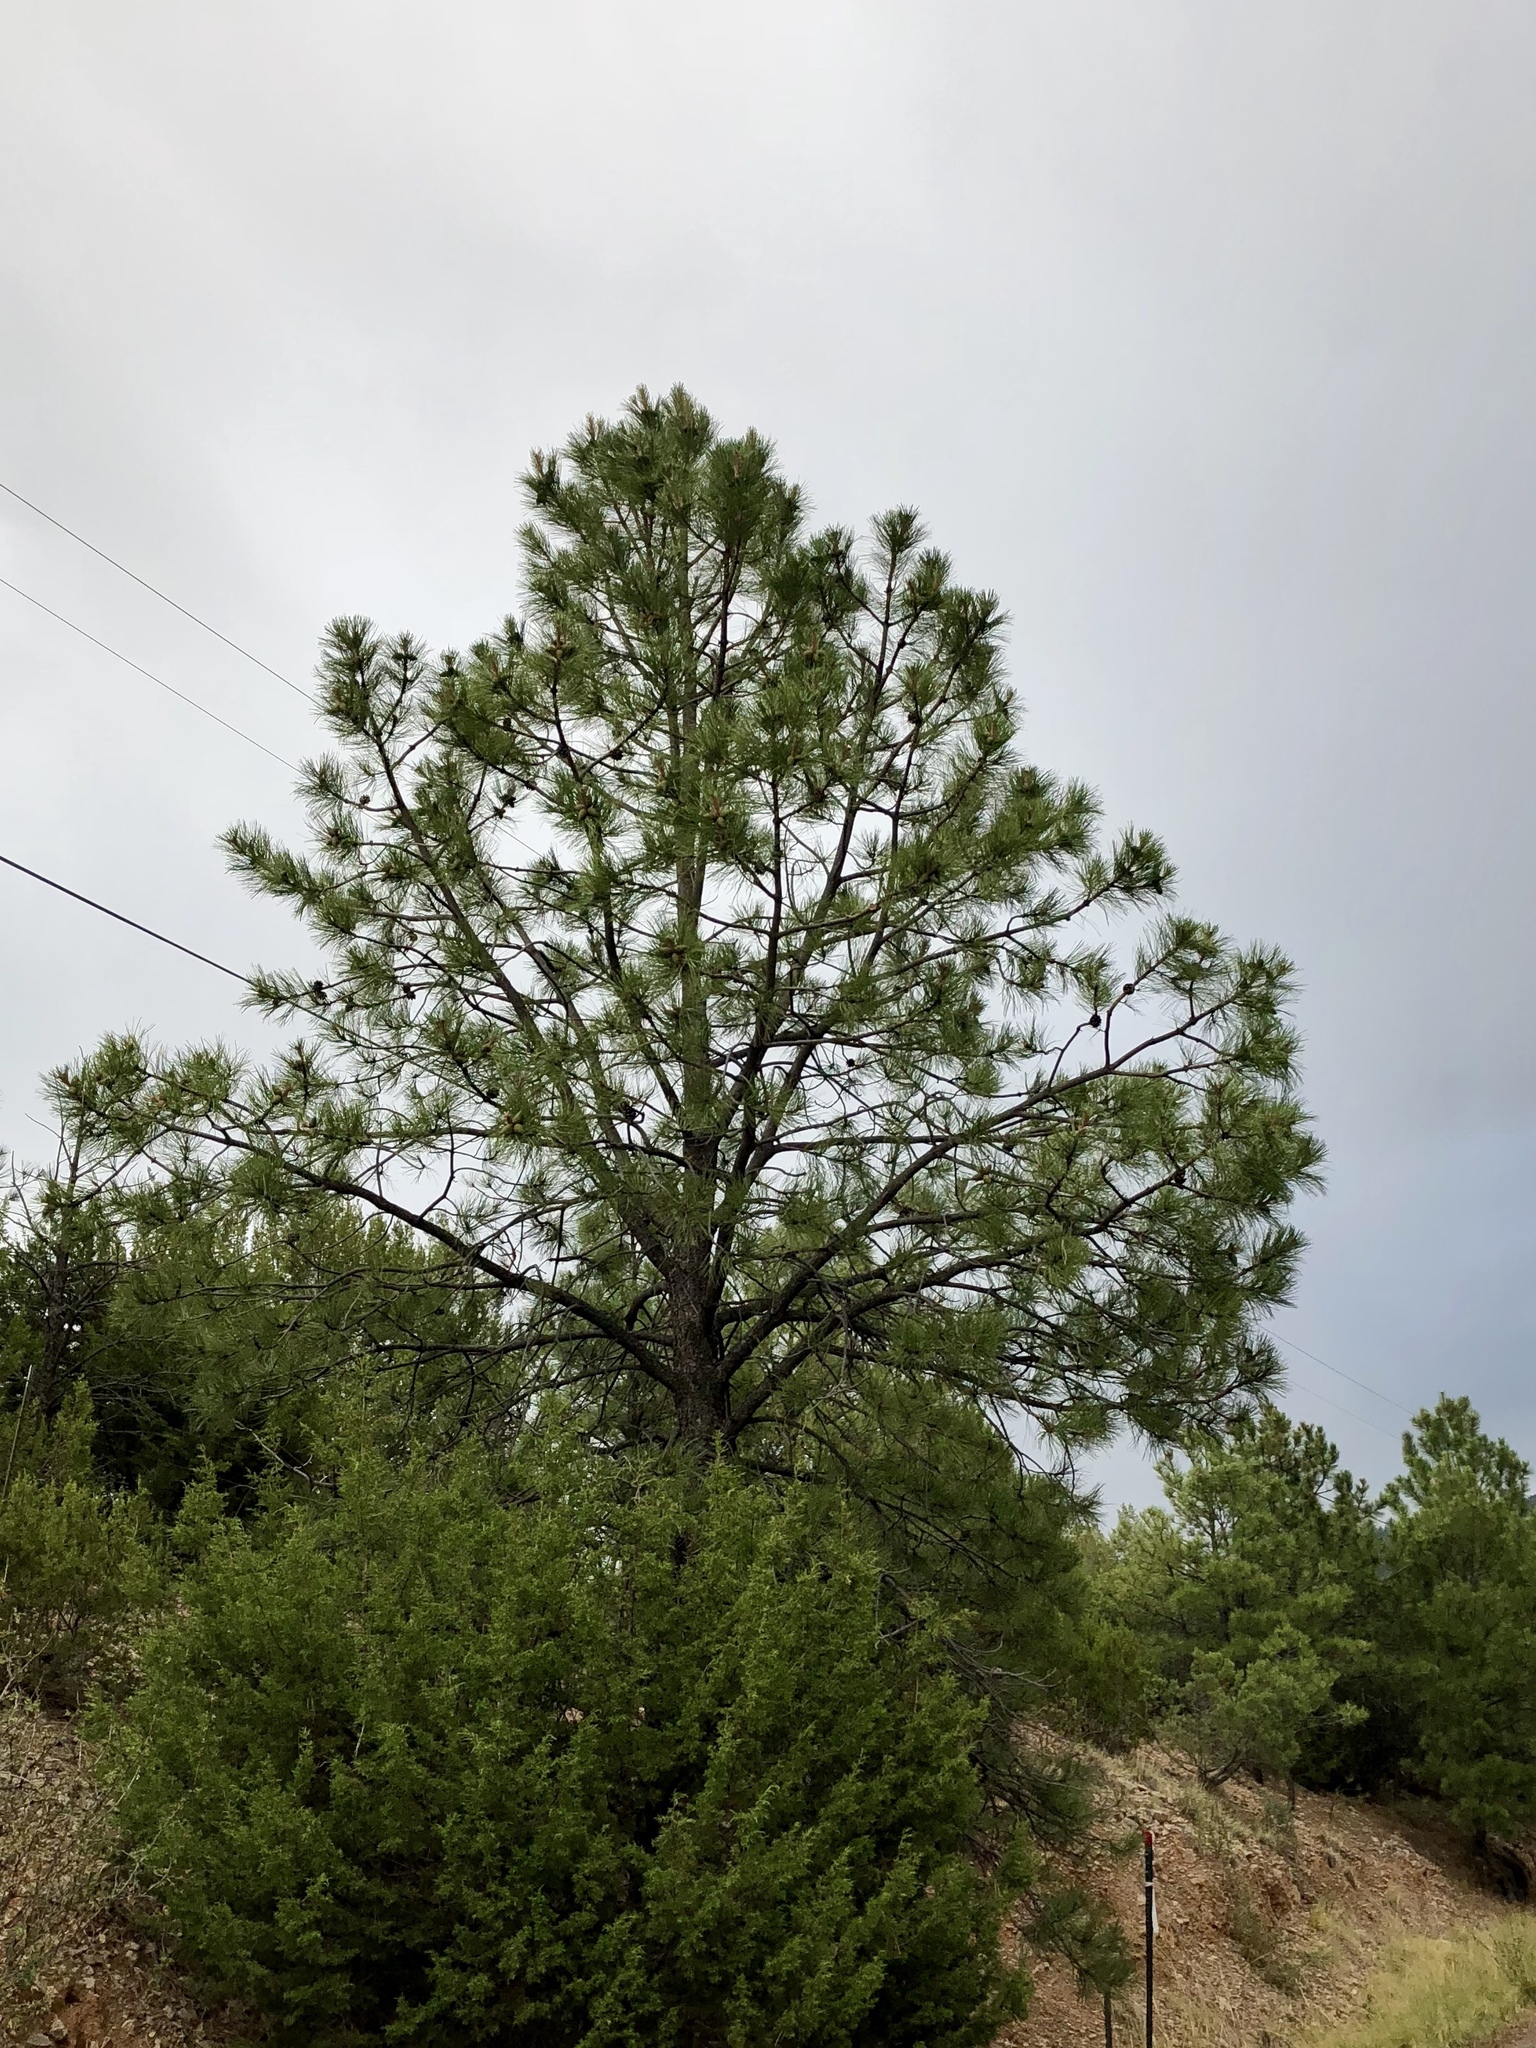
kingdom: Plantae
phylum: Tracheophyta
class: Pinopsida
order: Pinales
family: Pinaceae
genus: Pinus
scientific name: Pinus ponderosa
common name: Western yellow-pine
